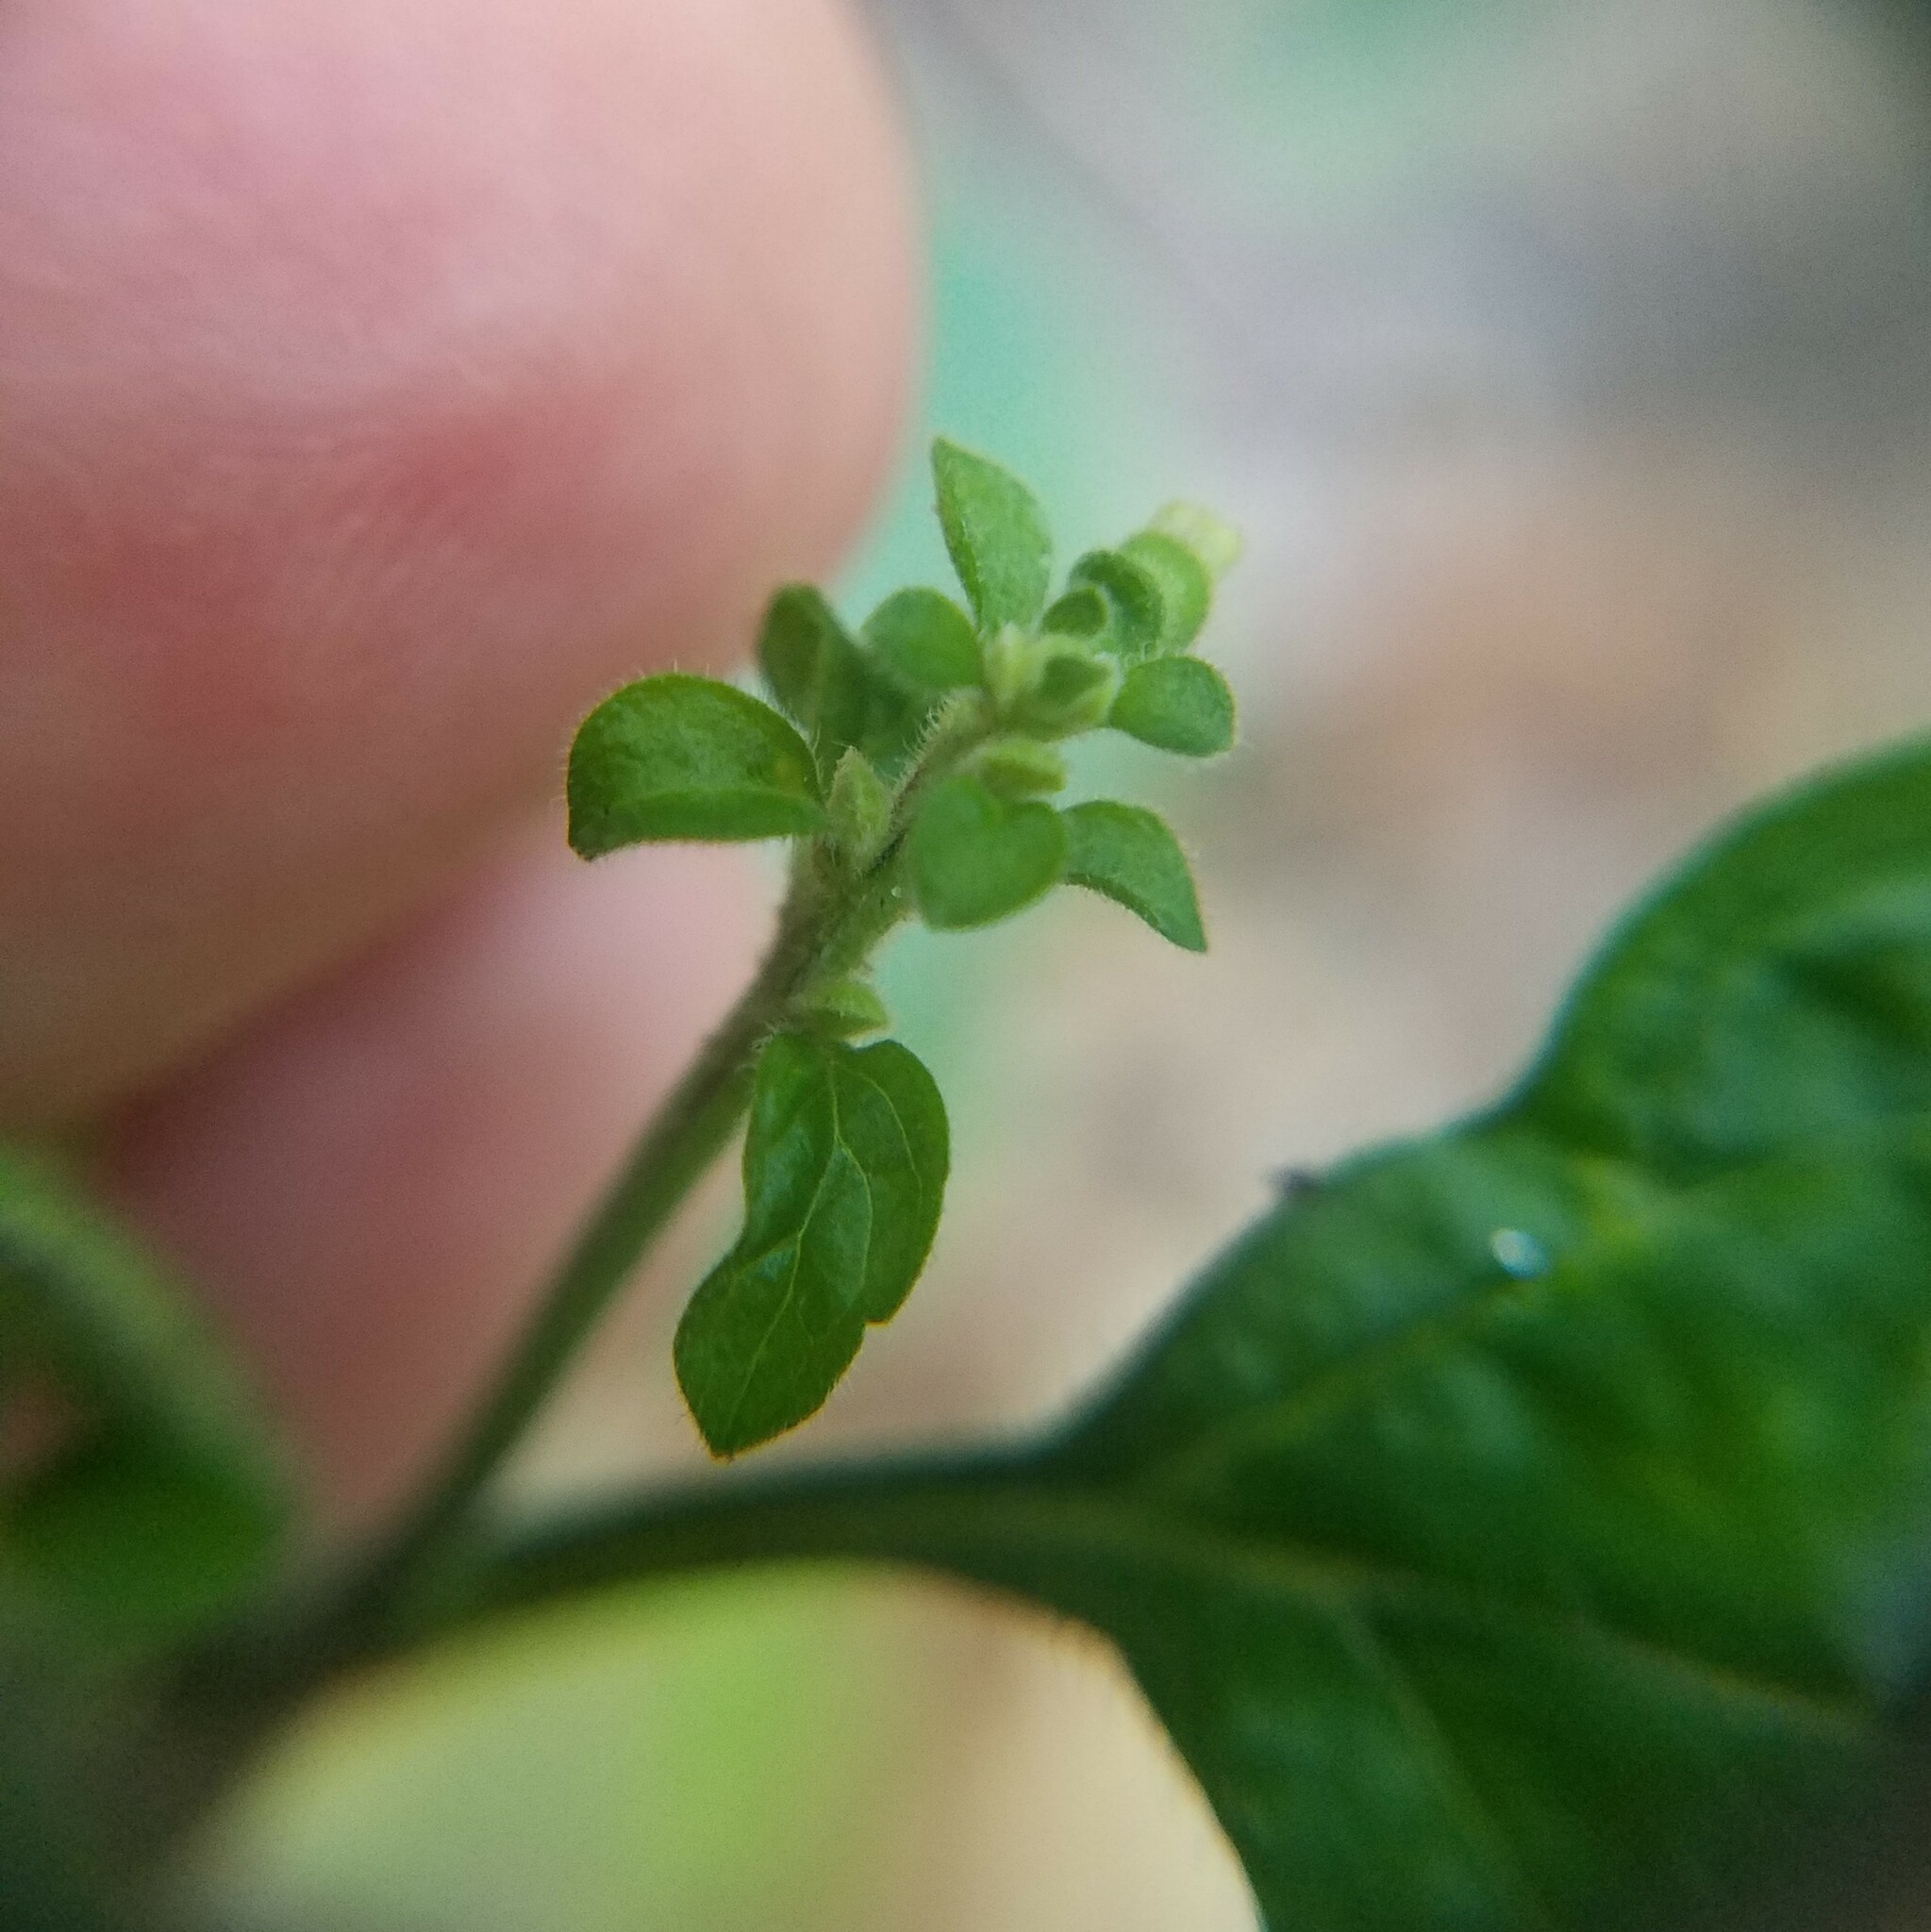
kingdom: Plantae
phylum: Tracheophyta
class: Magnoliopsida
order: Lamiales
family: Lamiaceae
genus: Scutellaria
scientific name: Scutellaria elliptica
